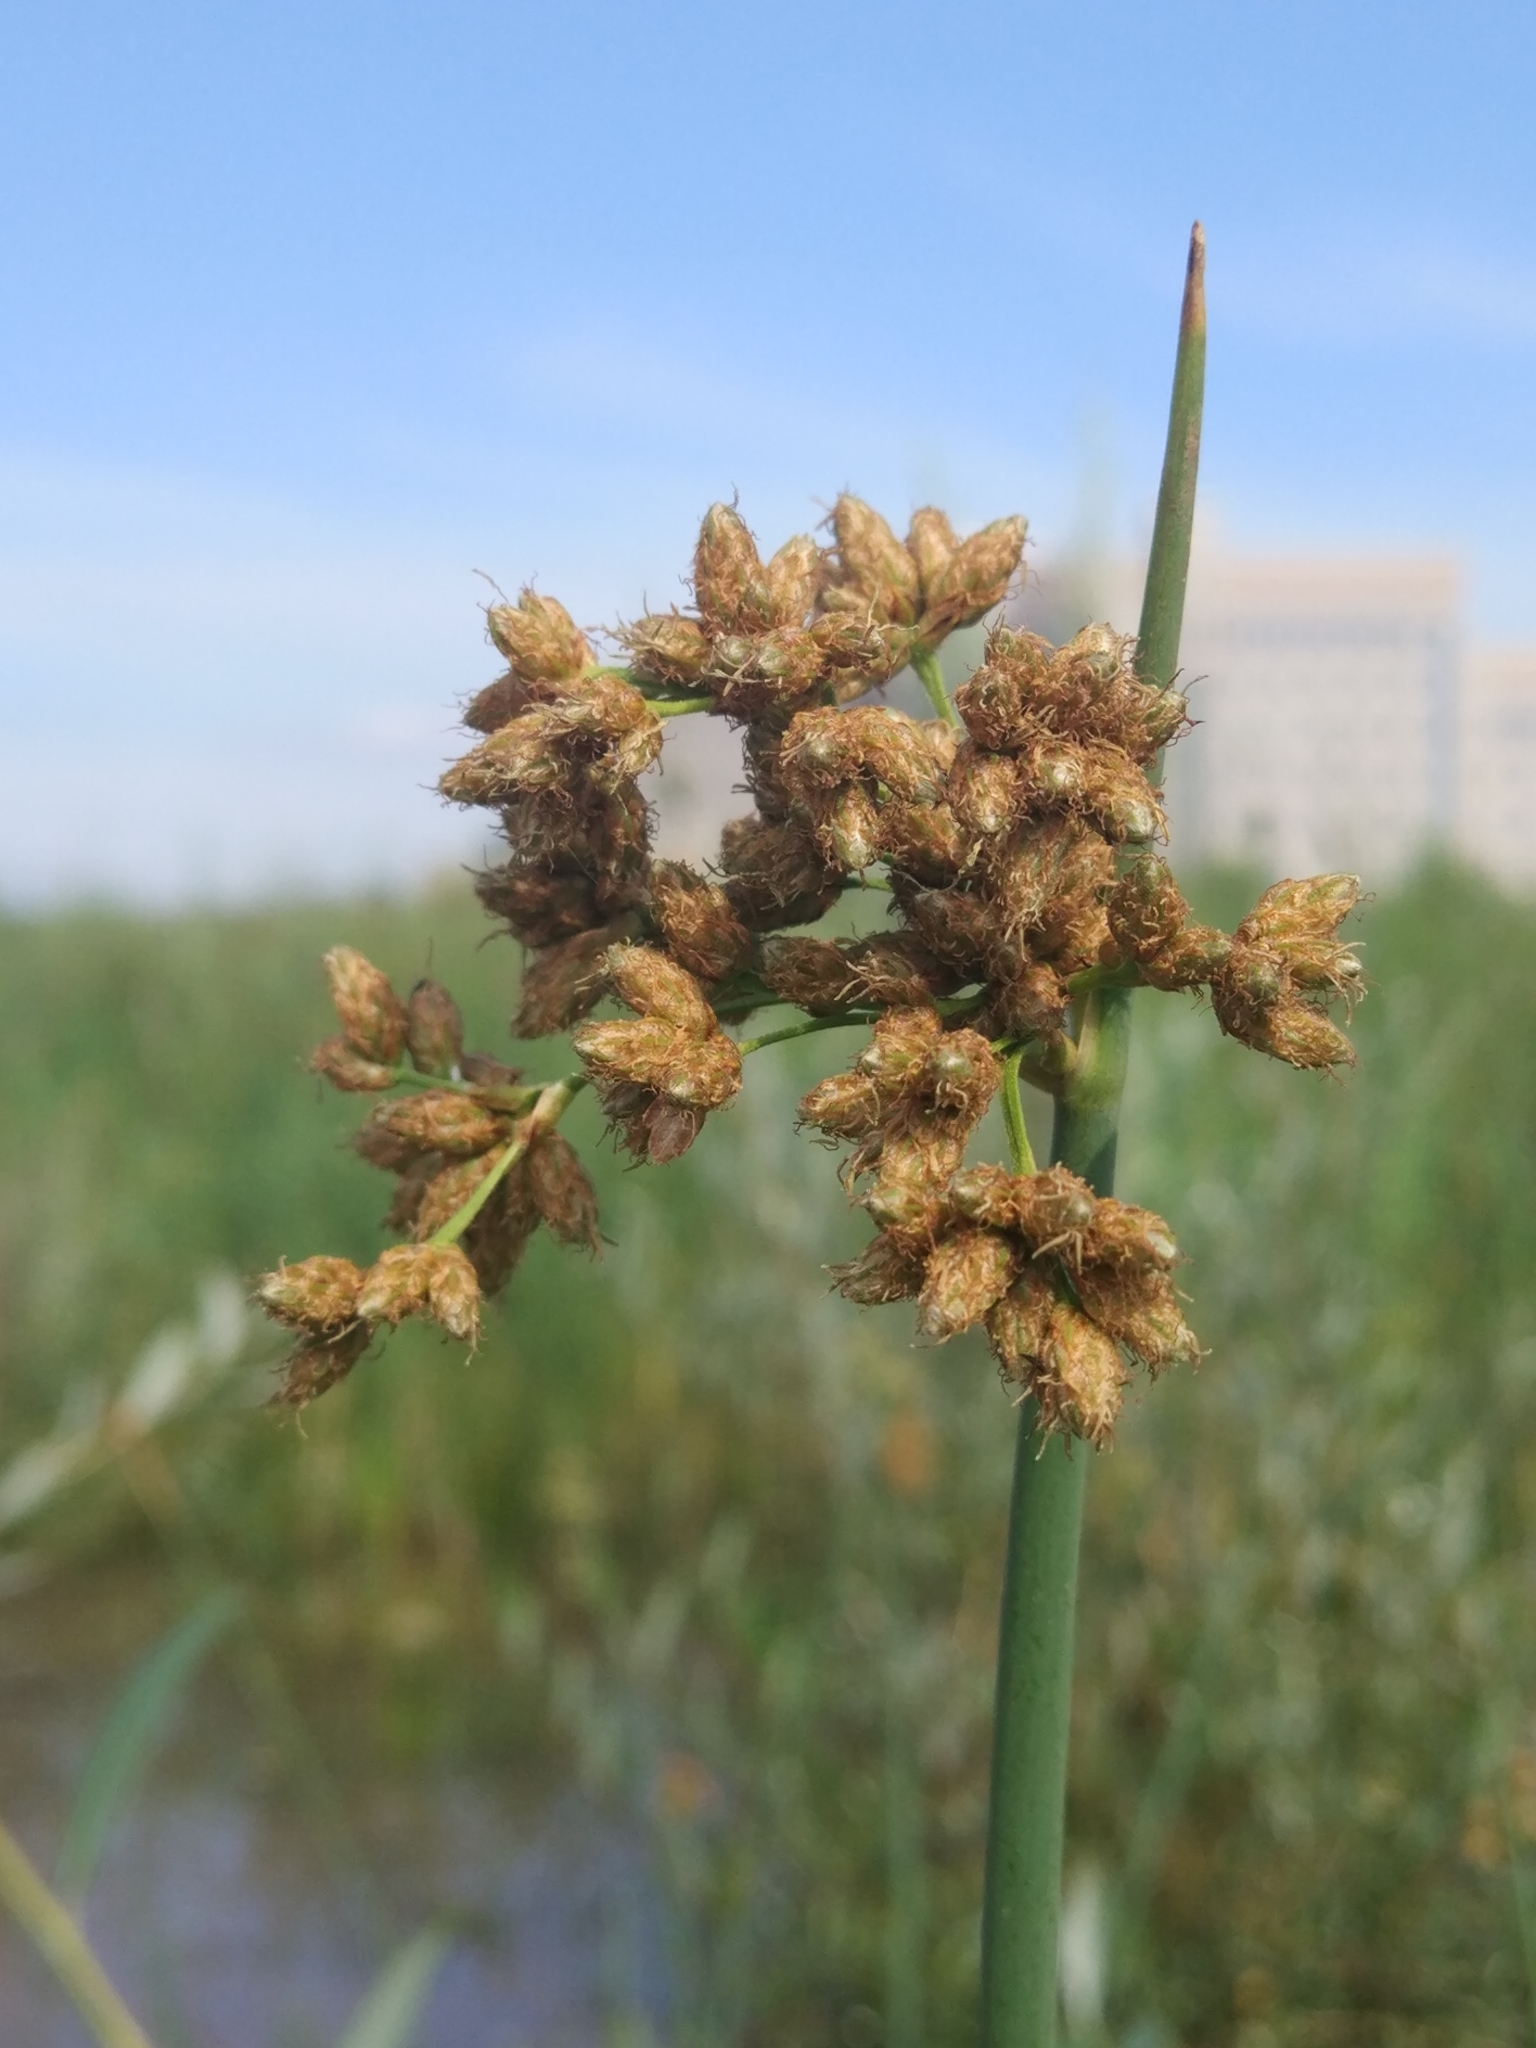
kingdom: Plantae
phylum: Tracheophyta
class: Liliopsida
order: Poales
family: Cyperaceae
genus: Schoenoplectus
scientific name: Schoenoplectus lacustris
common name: Common club-rush
